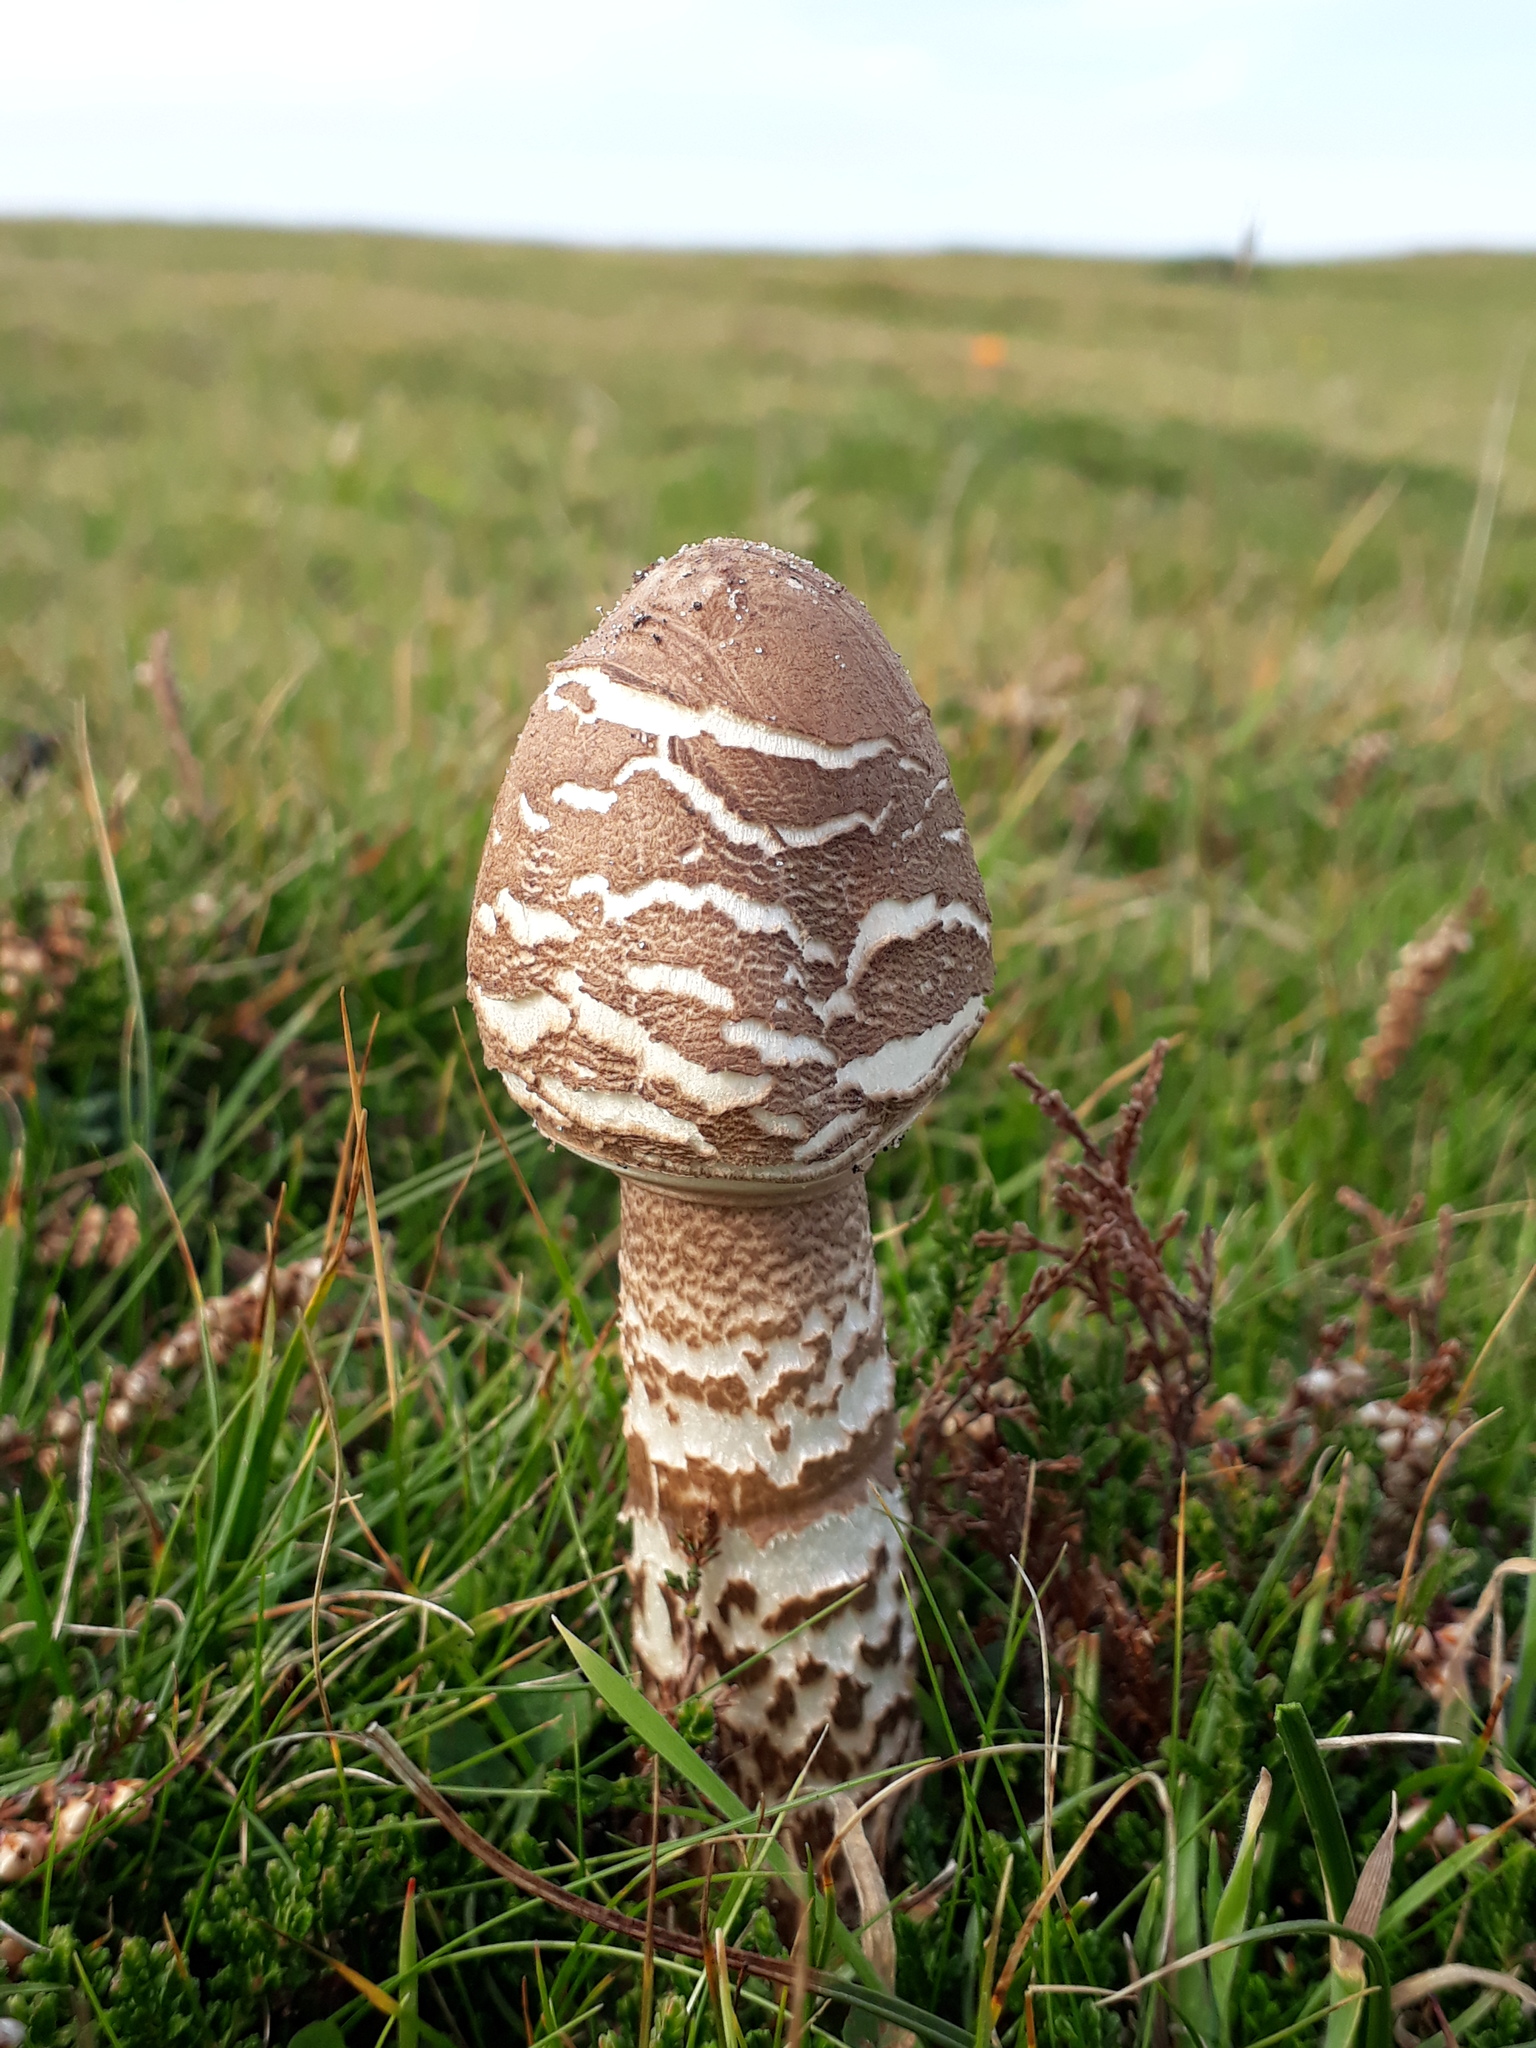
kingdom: Fungi
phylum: Basidiomycota
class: Agaricomycetes
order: Agaricales
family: Agaricaceae
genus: Macrolepiota
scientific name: Macrolepiota procera
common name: Parasol
